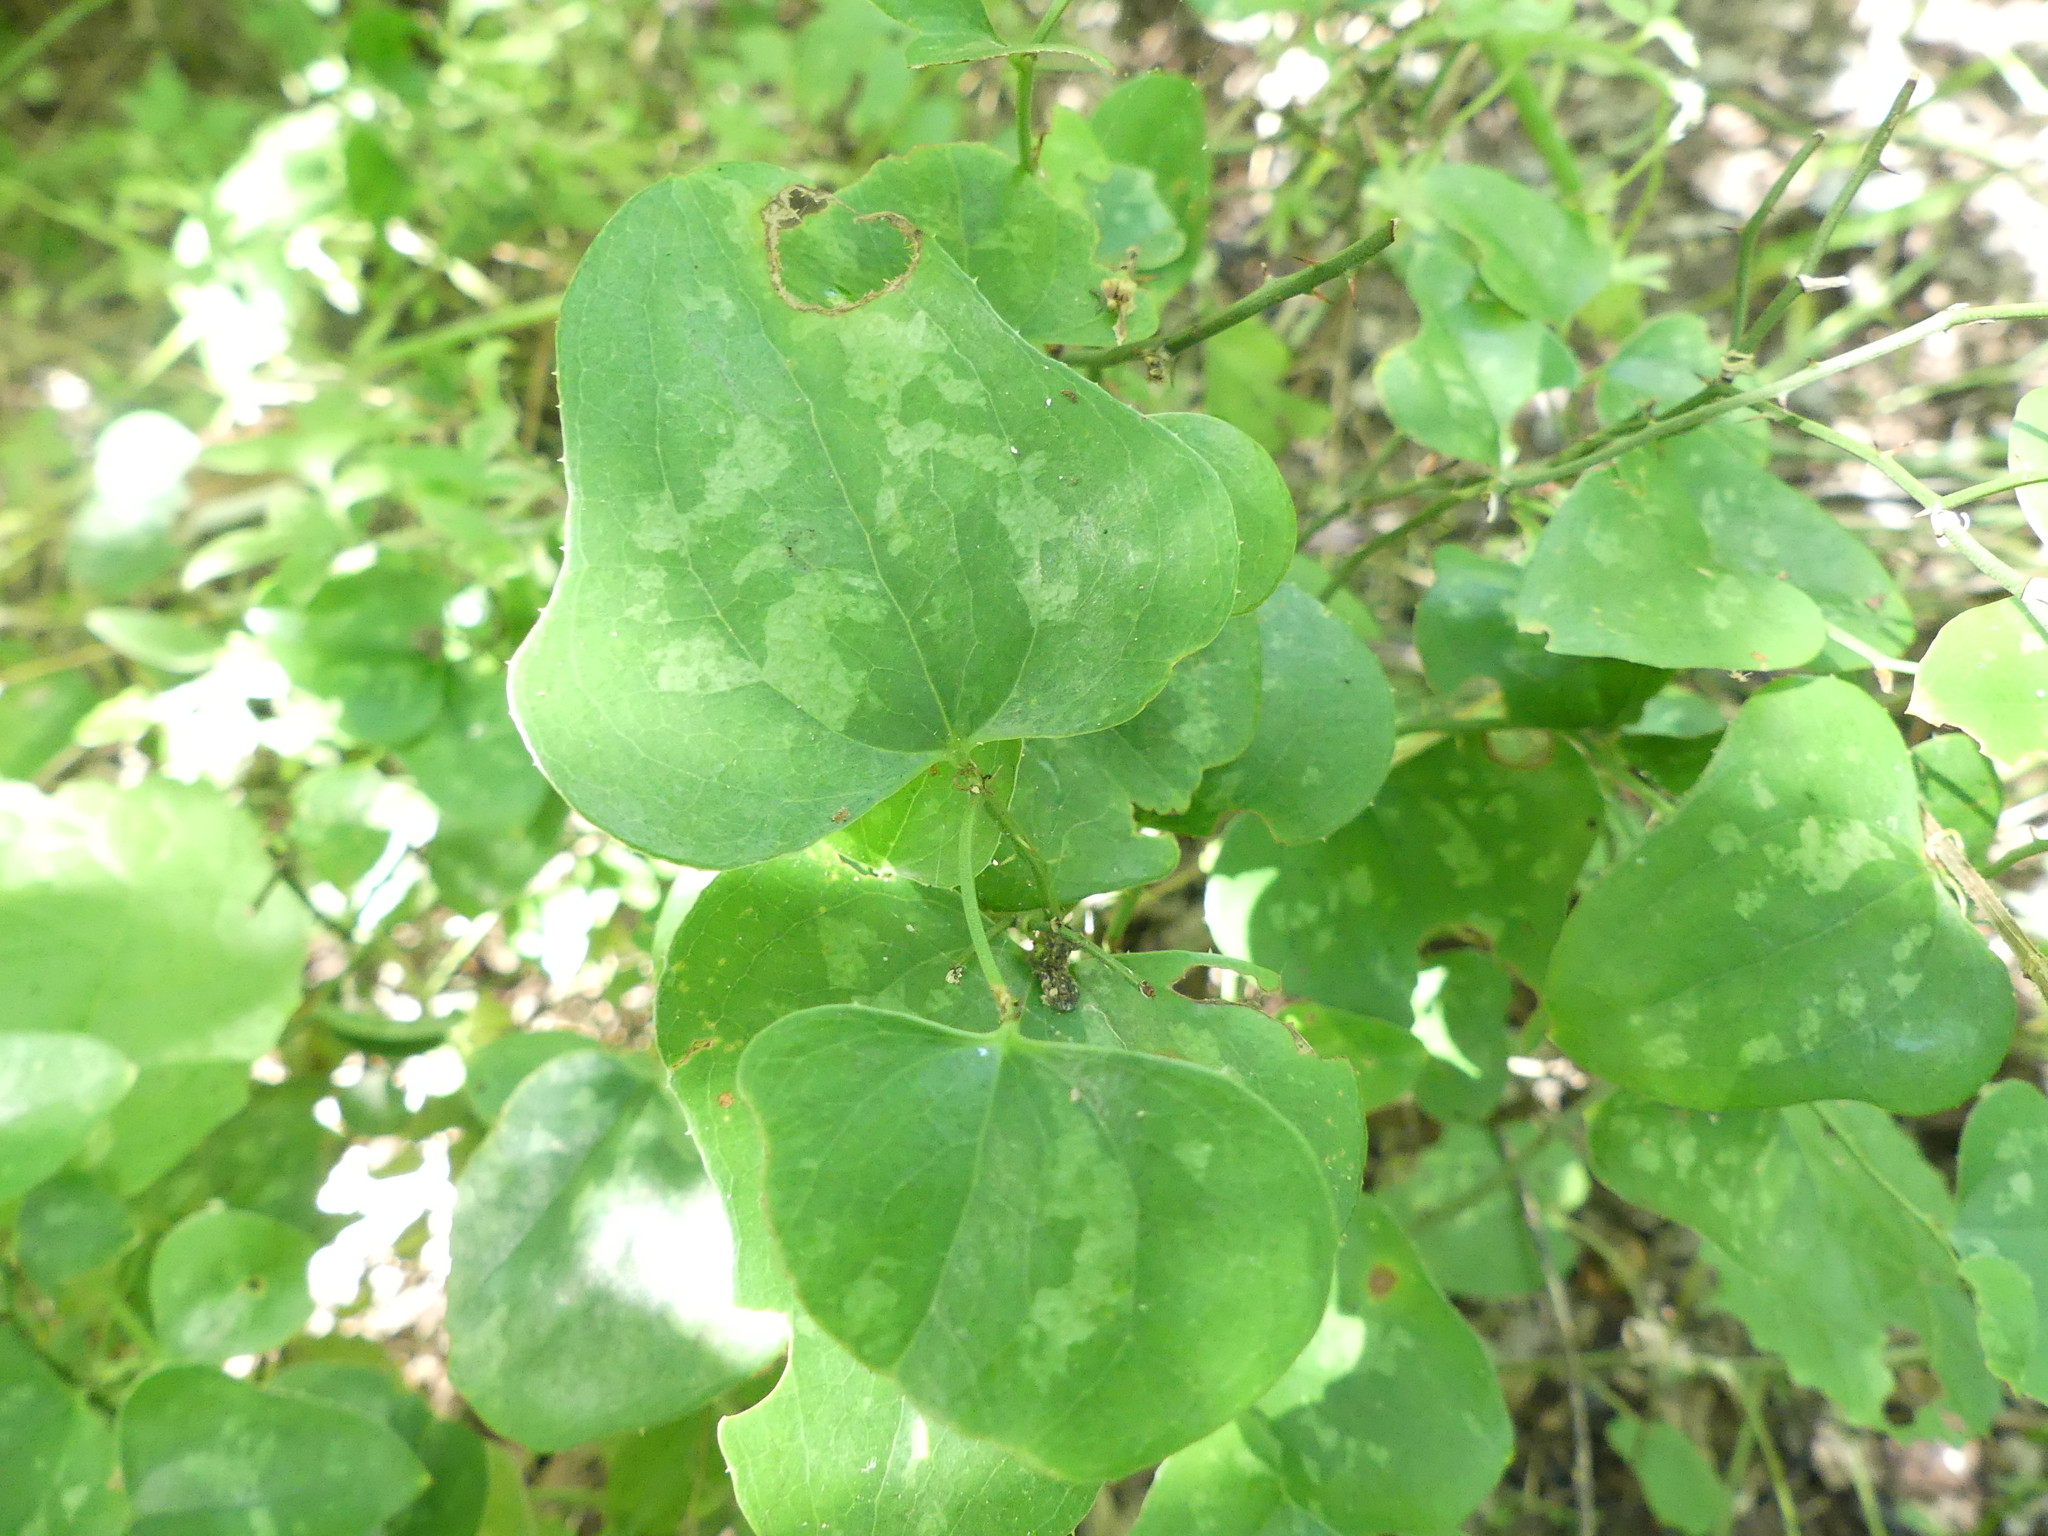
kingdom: Plantae
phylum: Tracheophyta
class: Liliopsida
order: Liliales
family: Smilacaceae
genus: Smilax
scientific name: Smilax bona-nox
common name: Catbrier
